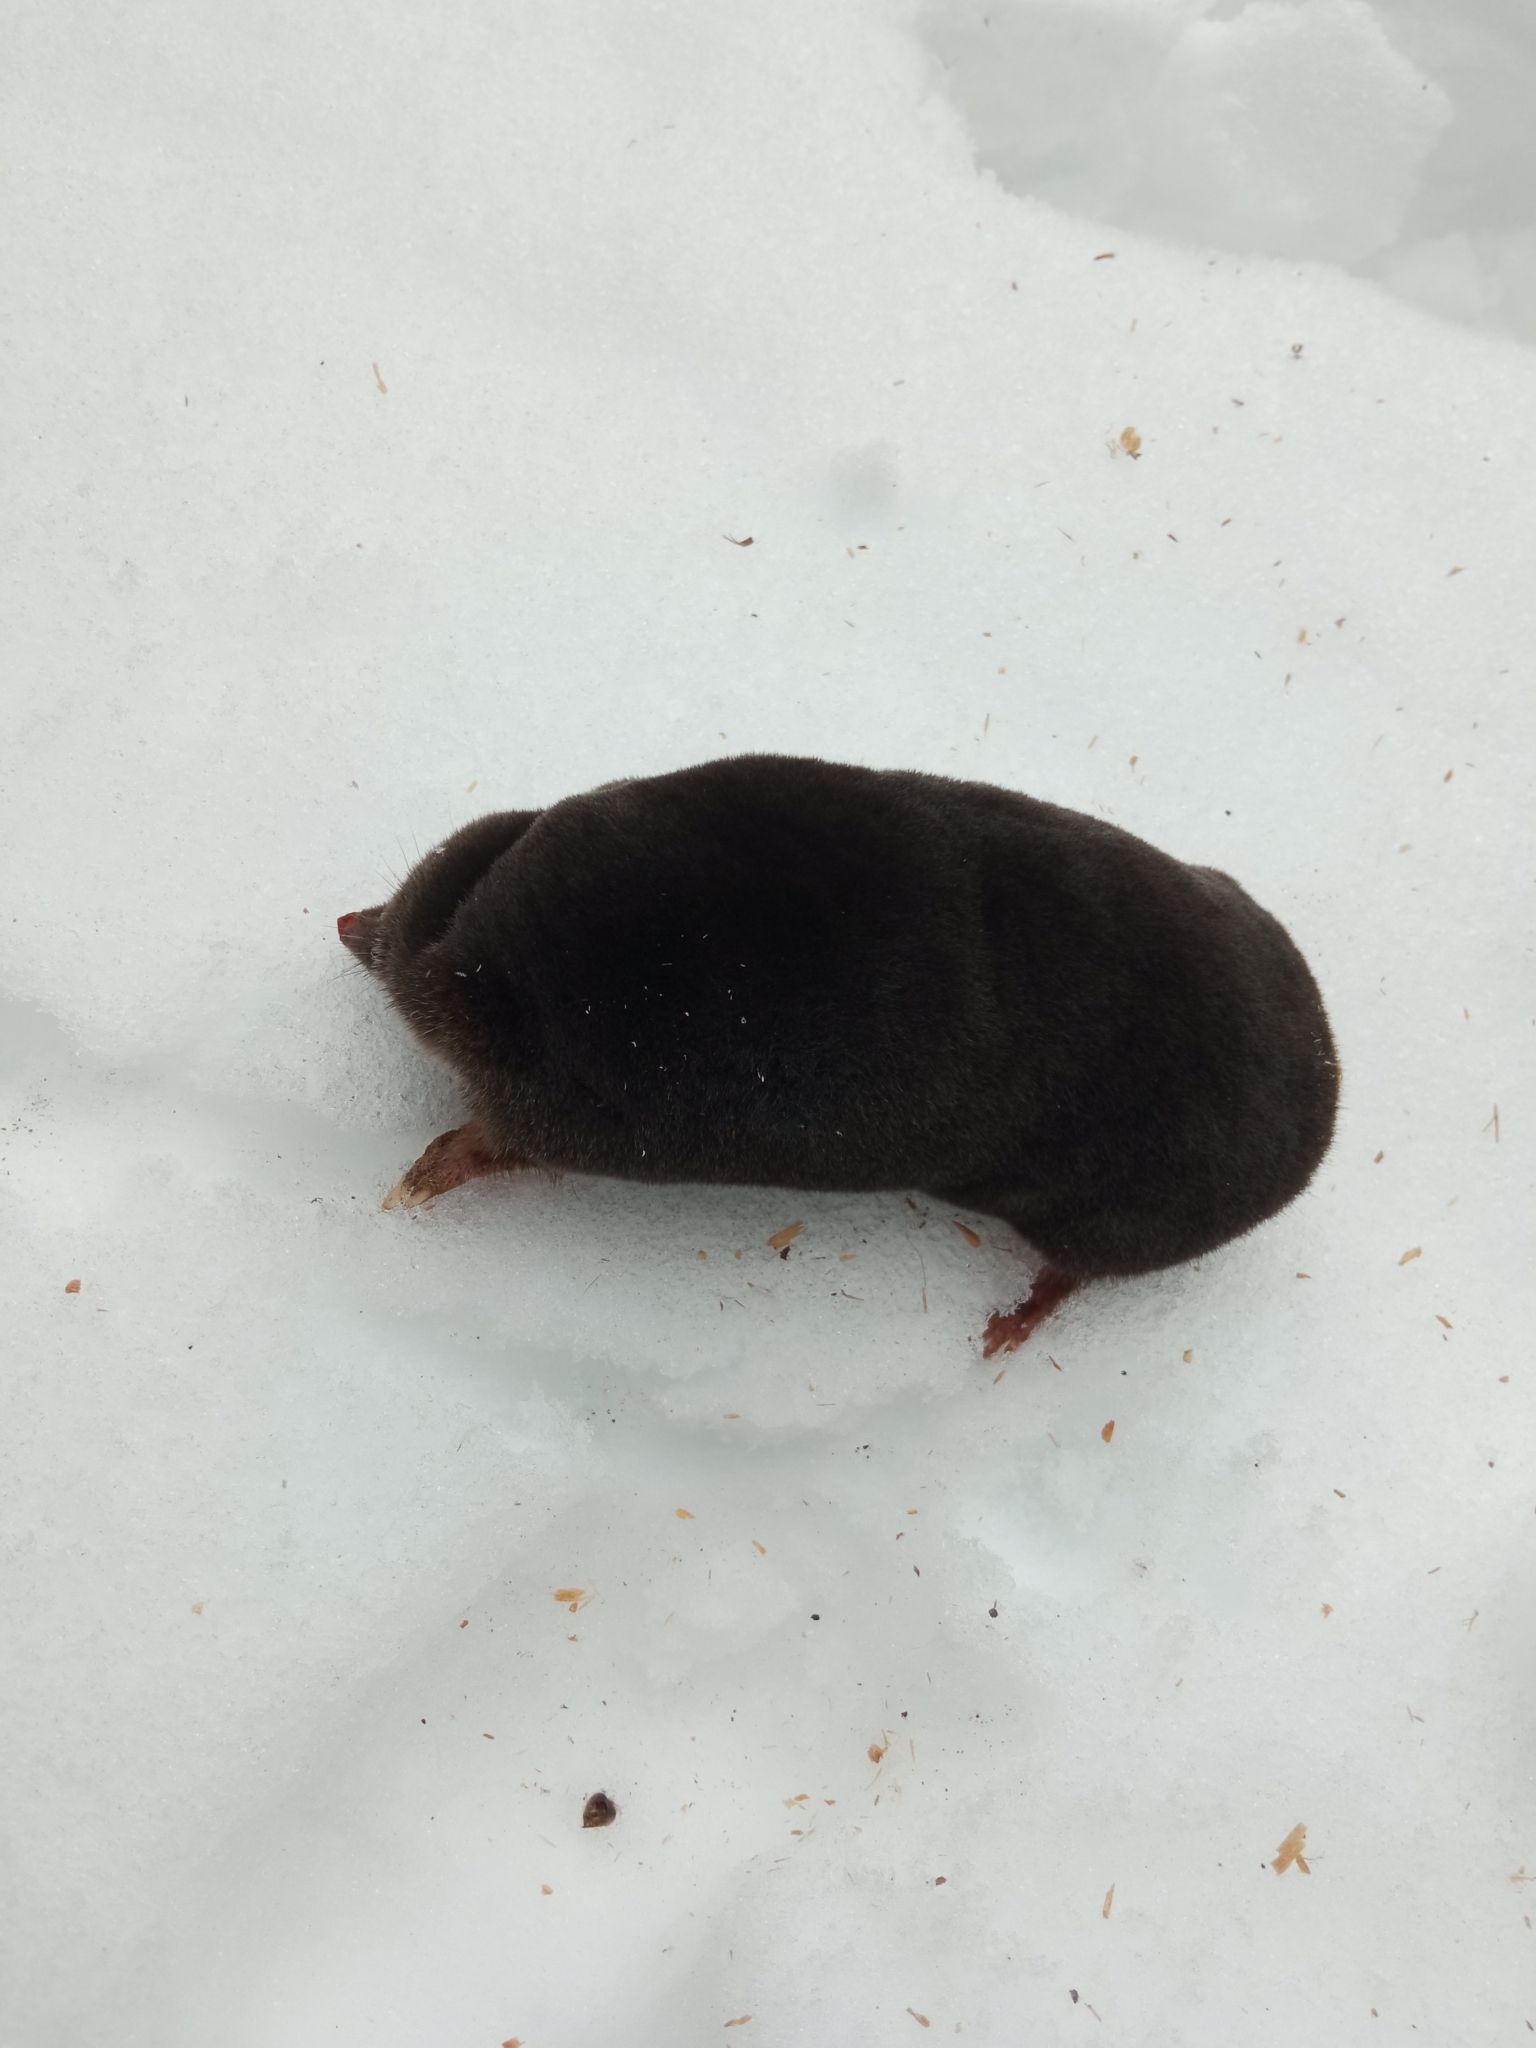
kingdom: Animalia
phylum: Chordata
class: Mammalia
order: Soricomorpha
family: Talpidae
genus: Talpa
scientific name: Talpa europaea
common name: European mole
